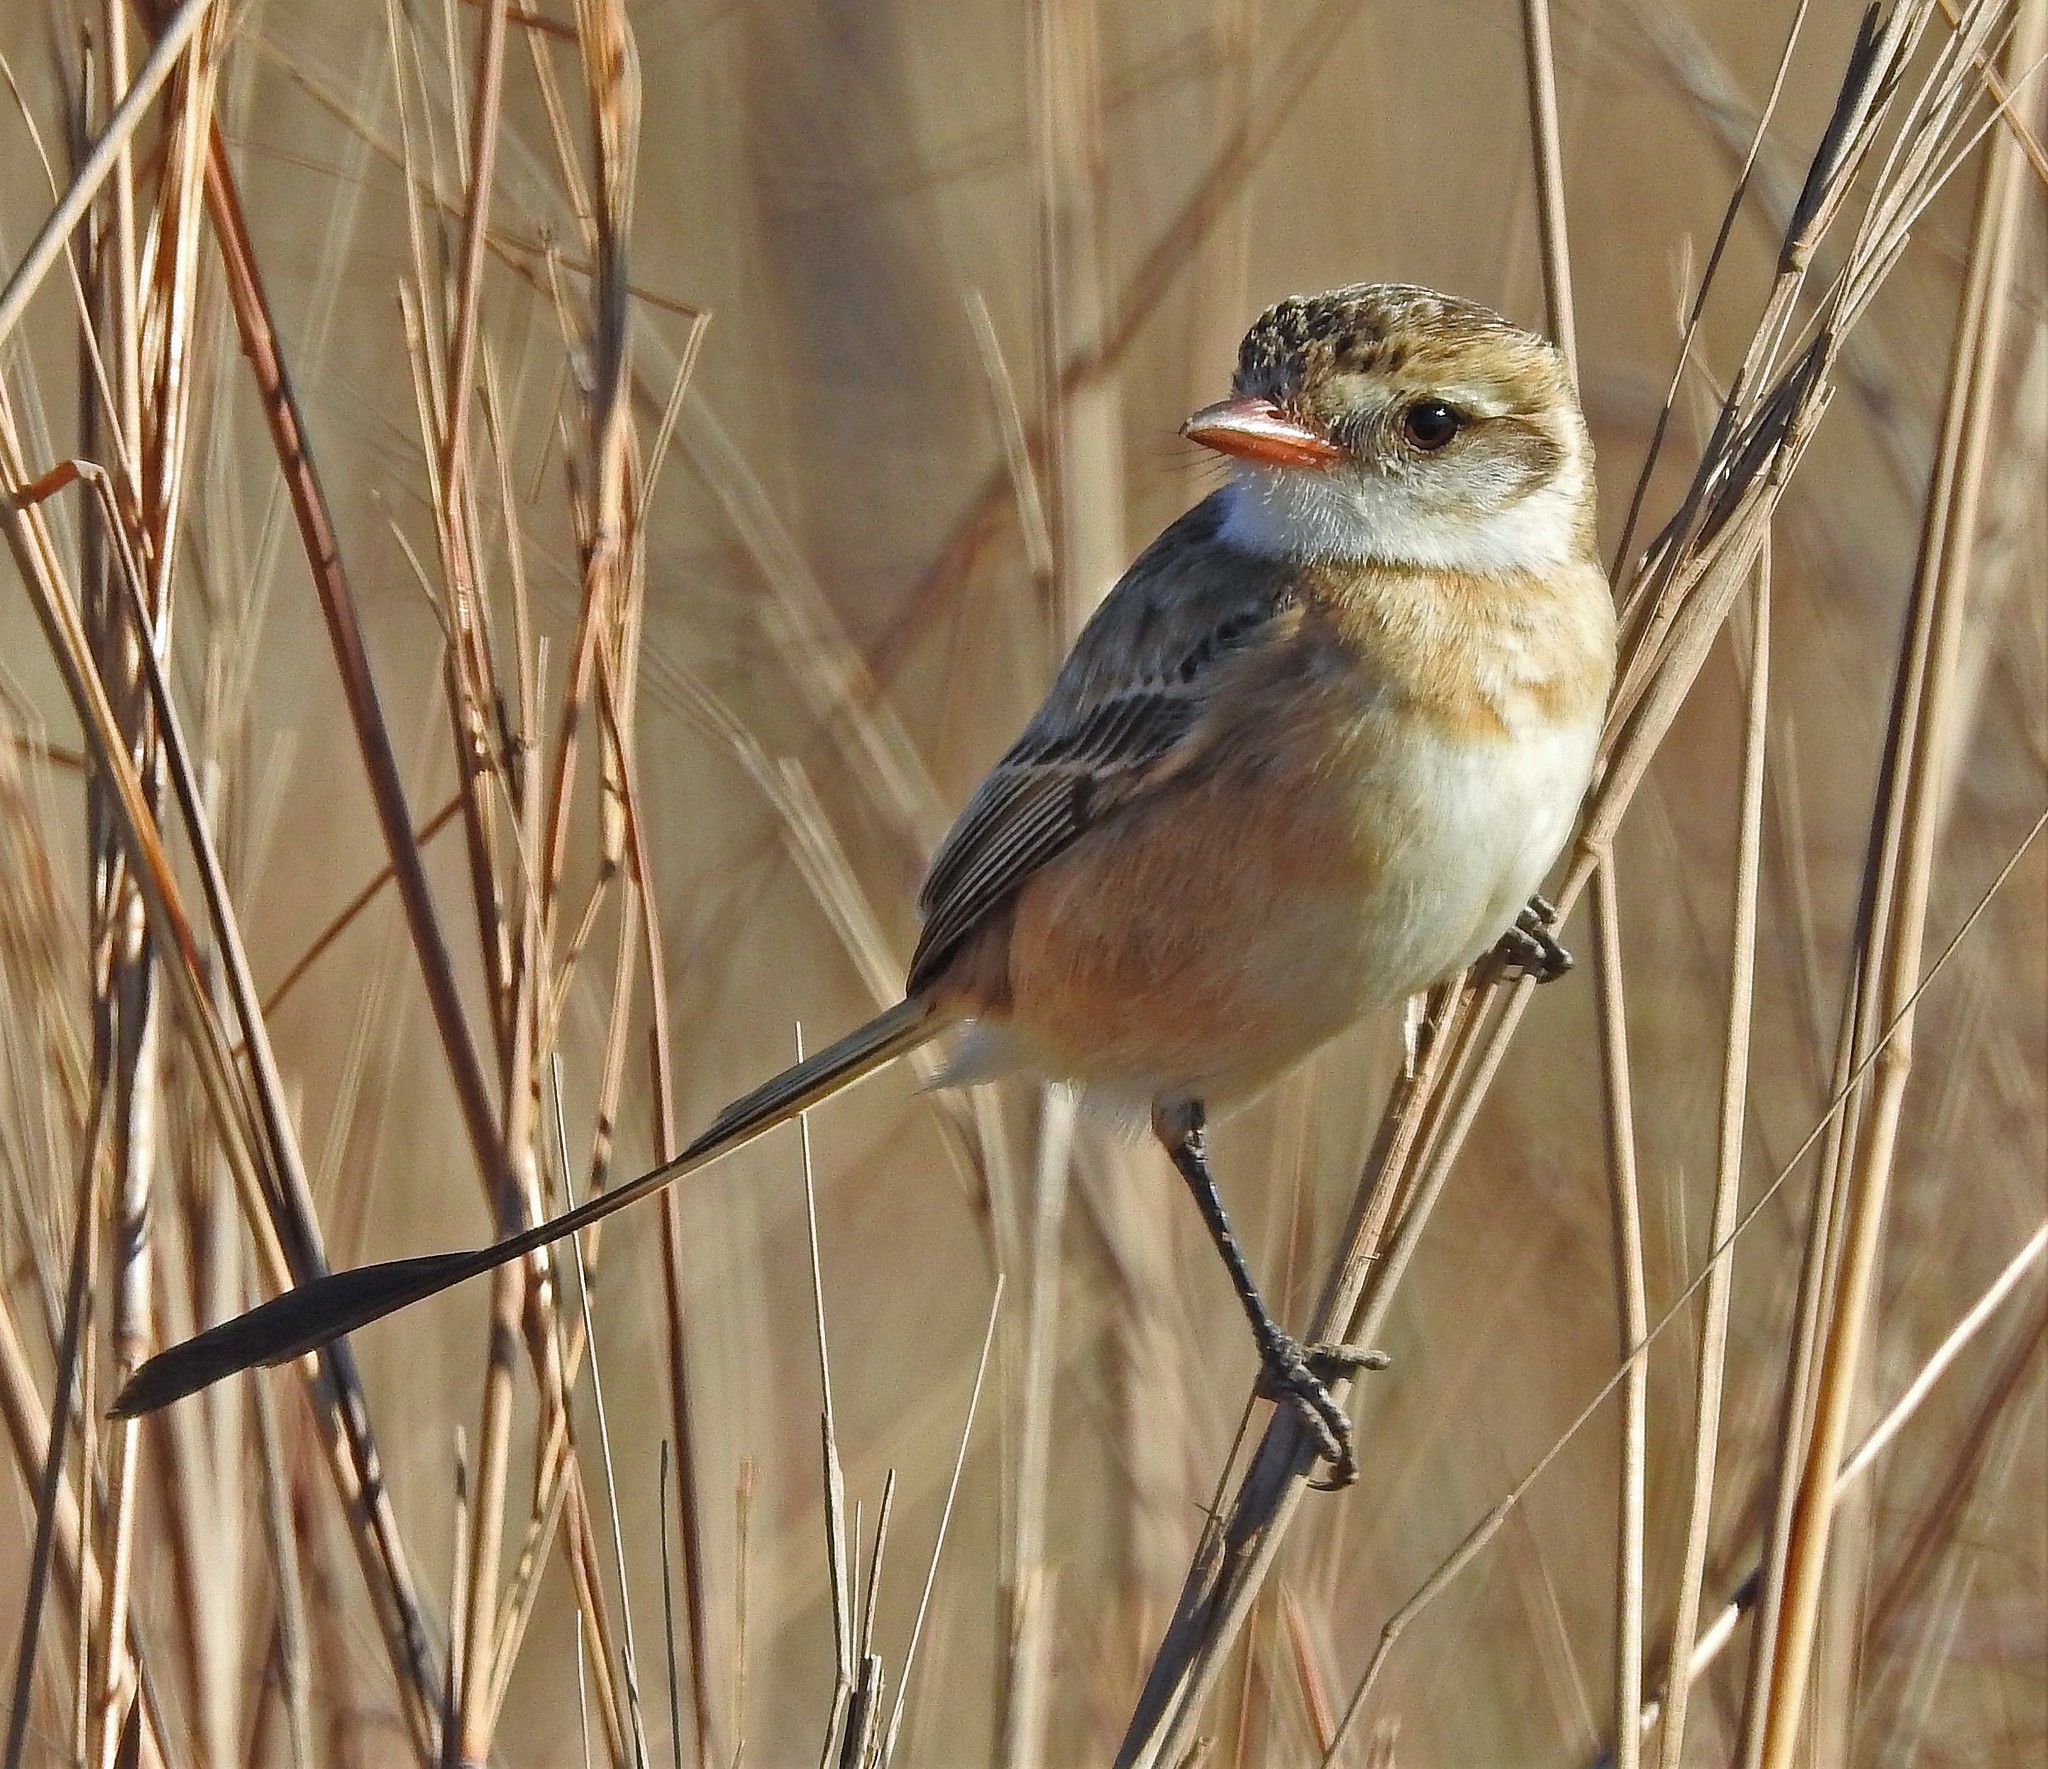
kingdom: Animalia
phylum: Chordata
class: Aves
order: Passeriformes
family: Tyrannidae
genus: Alectrurus
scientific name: Alectrurus risora
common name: Strange-tailed tyrant
